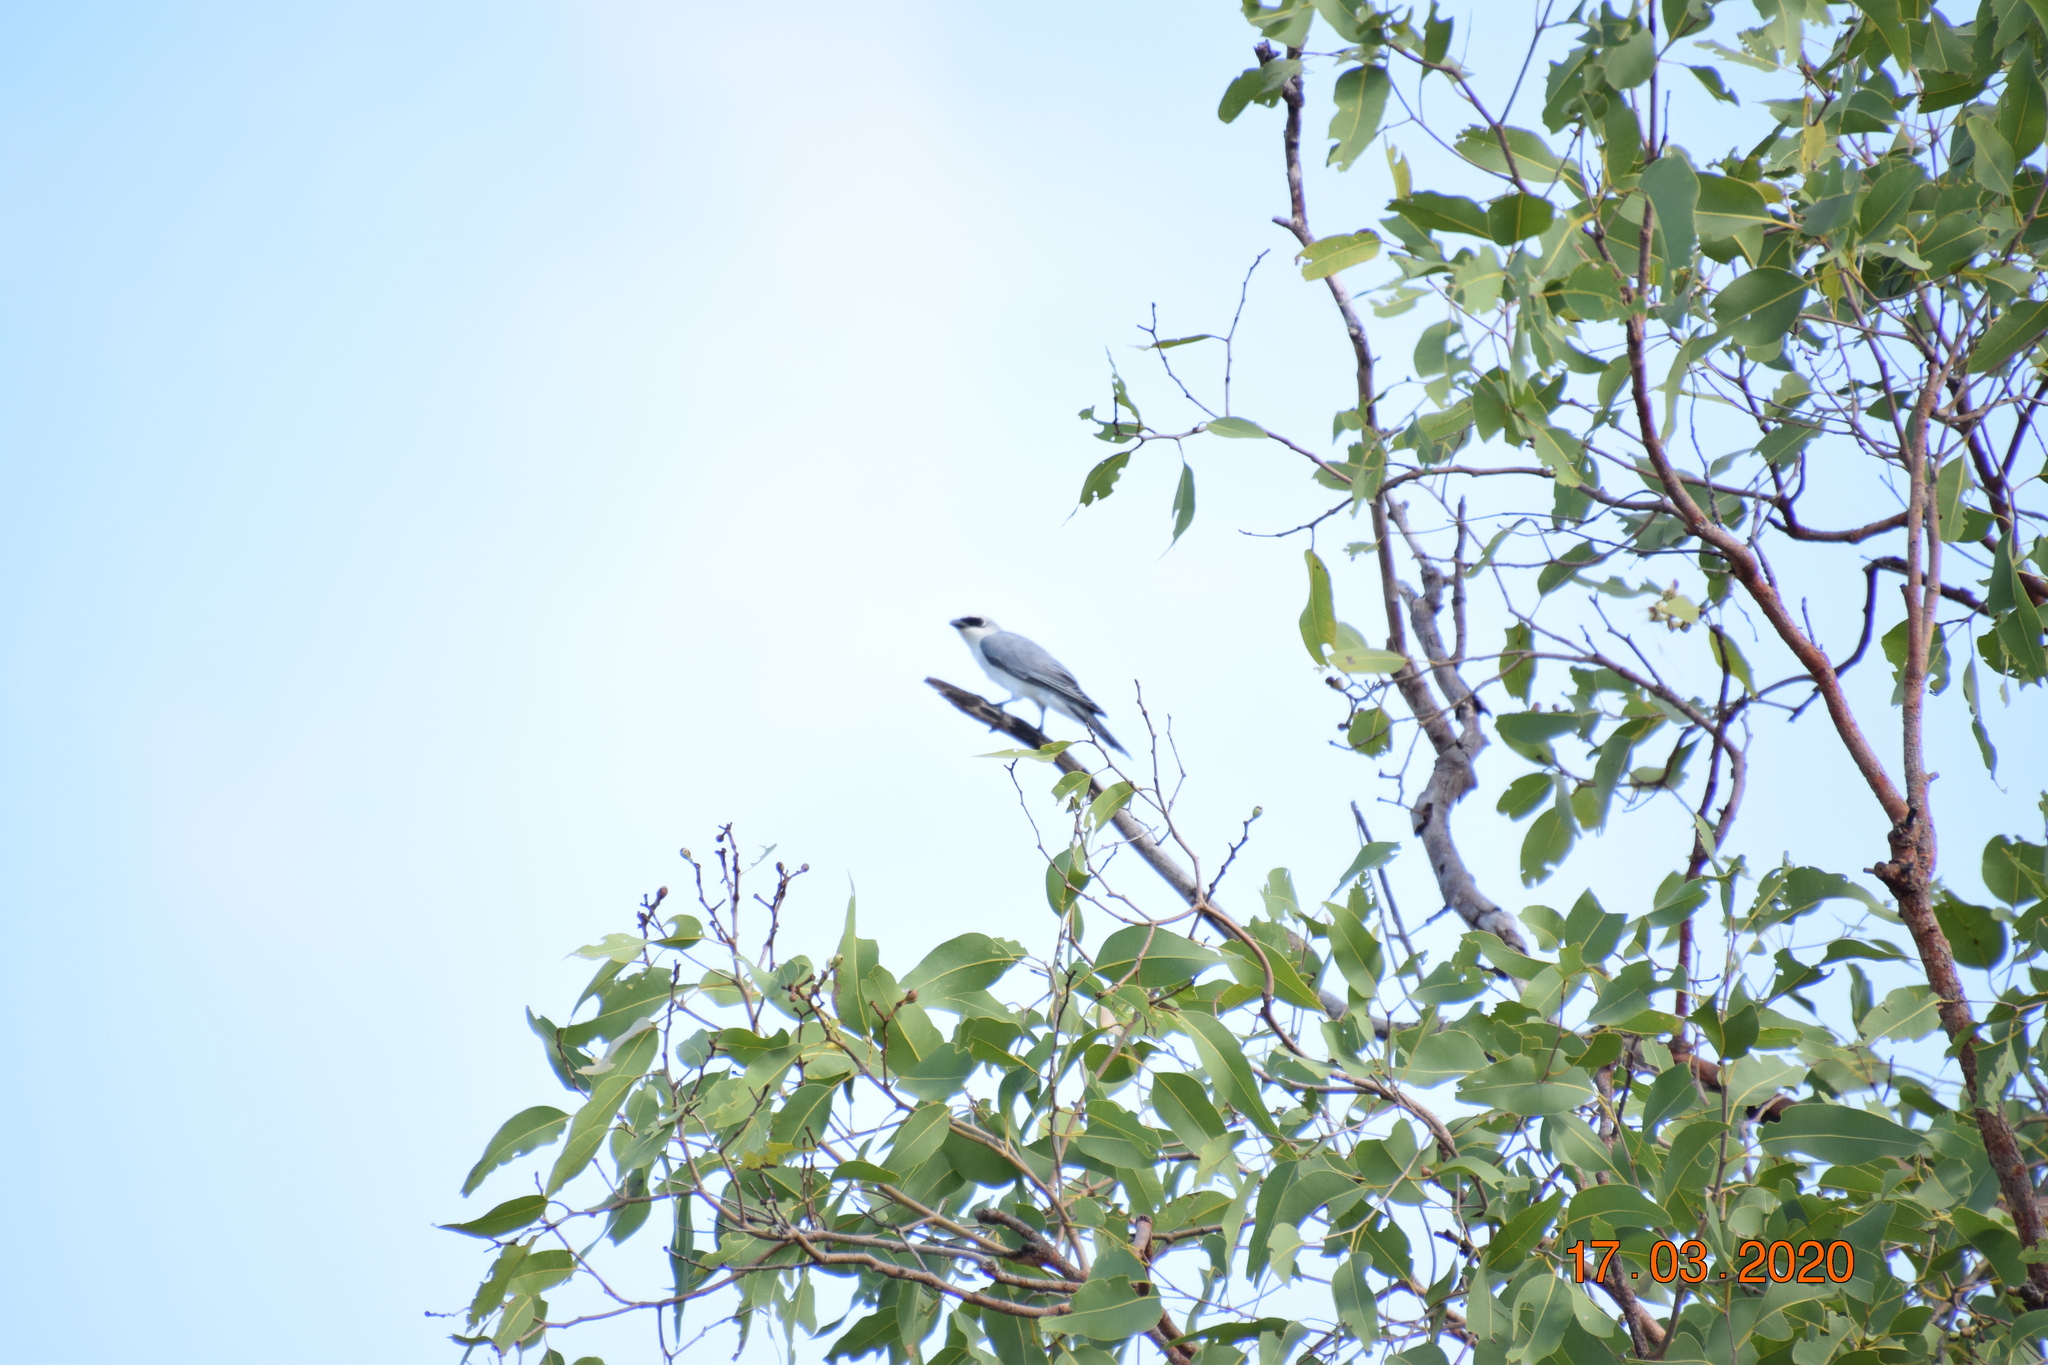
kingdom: Animalia
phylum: Chordata
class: Aves
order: Passeriformes
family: Campephagidae
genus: Coracina
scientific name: Coracina papuensis
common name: White-bellied cuckooshrike
